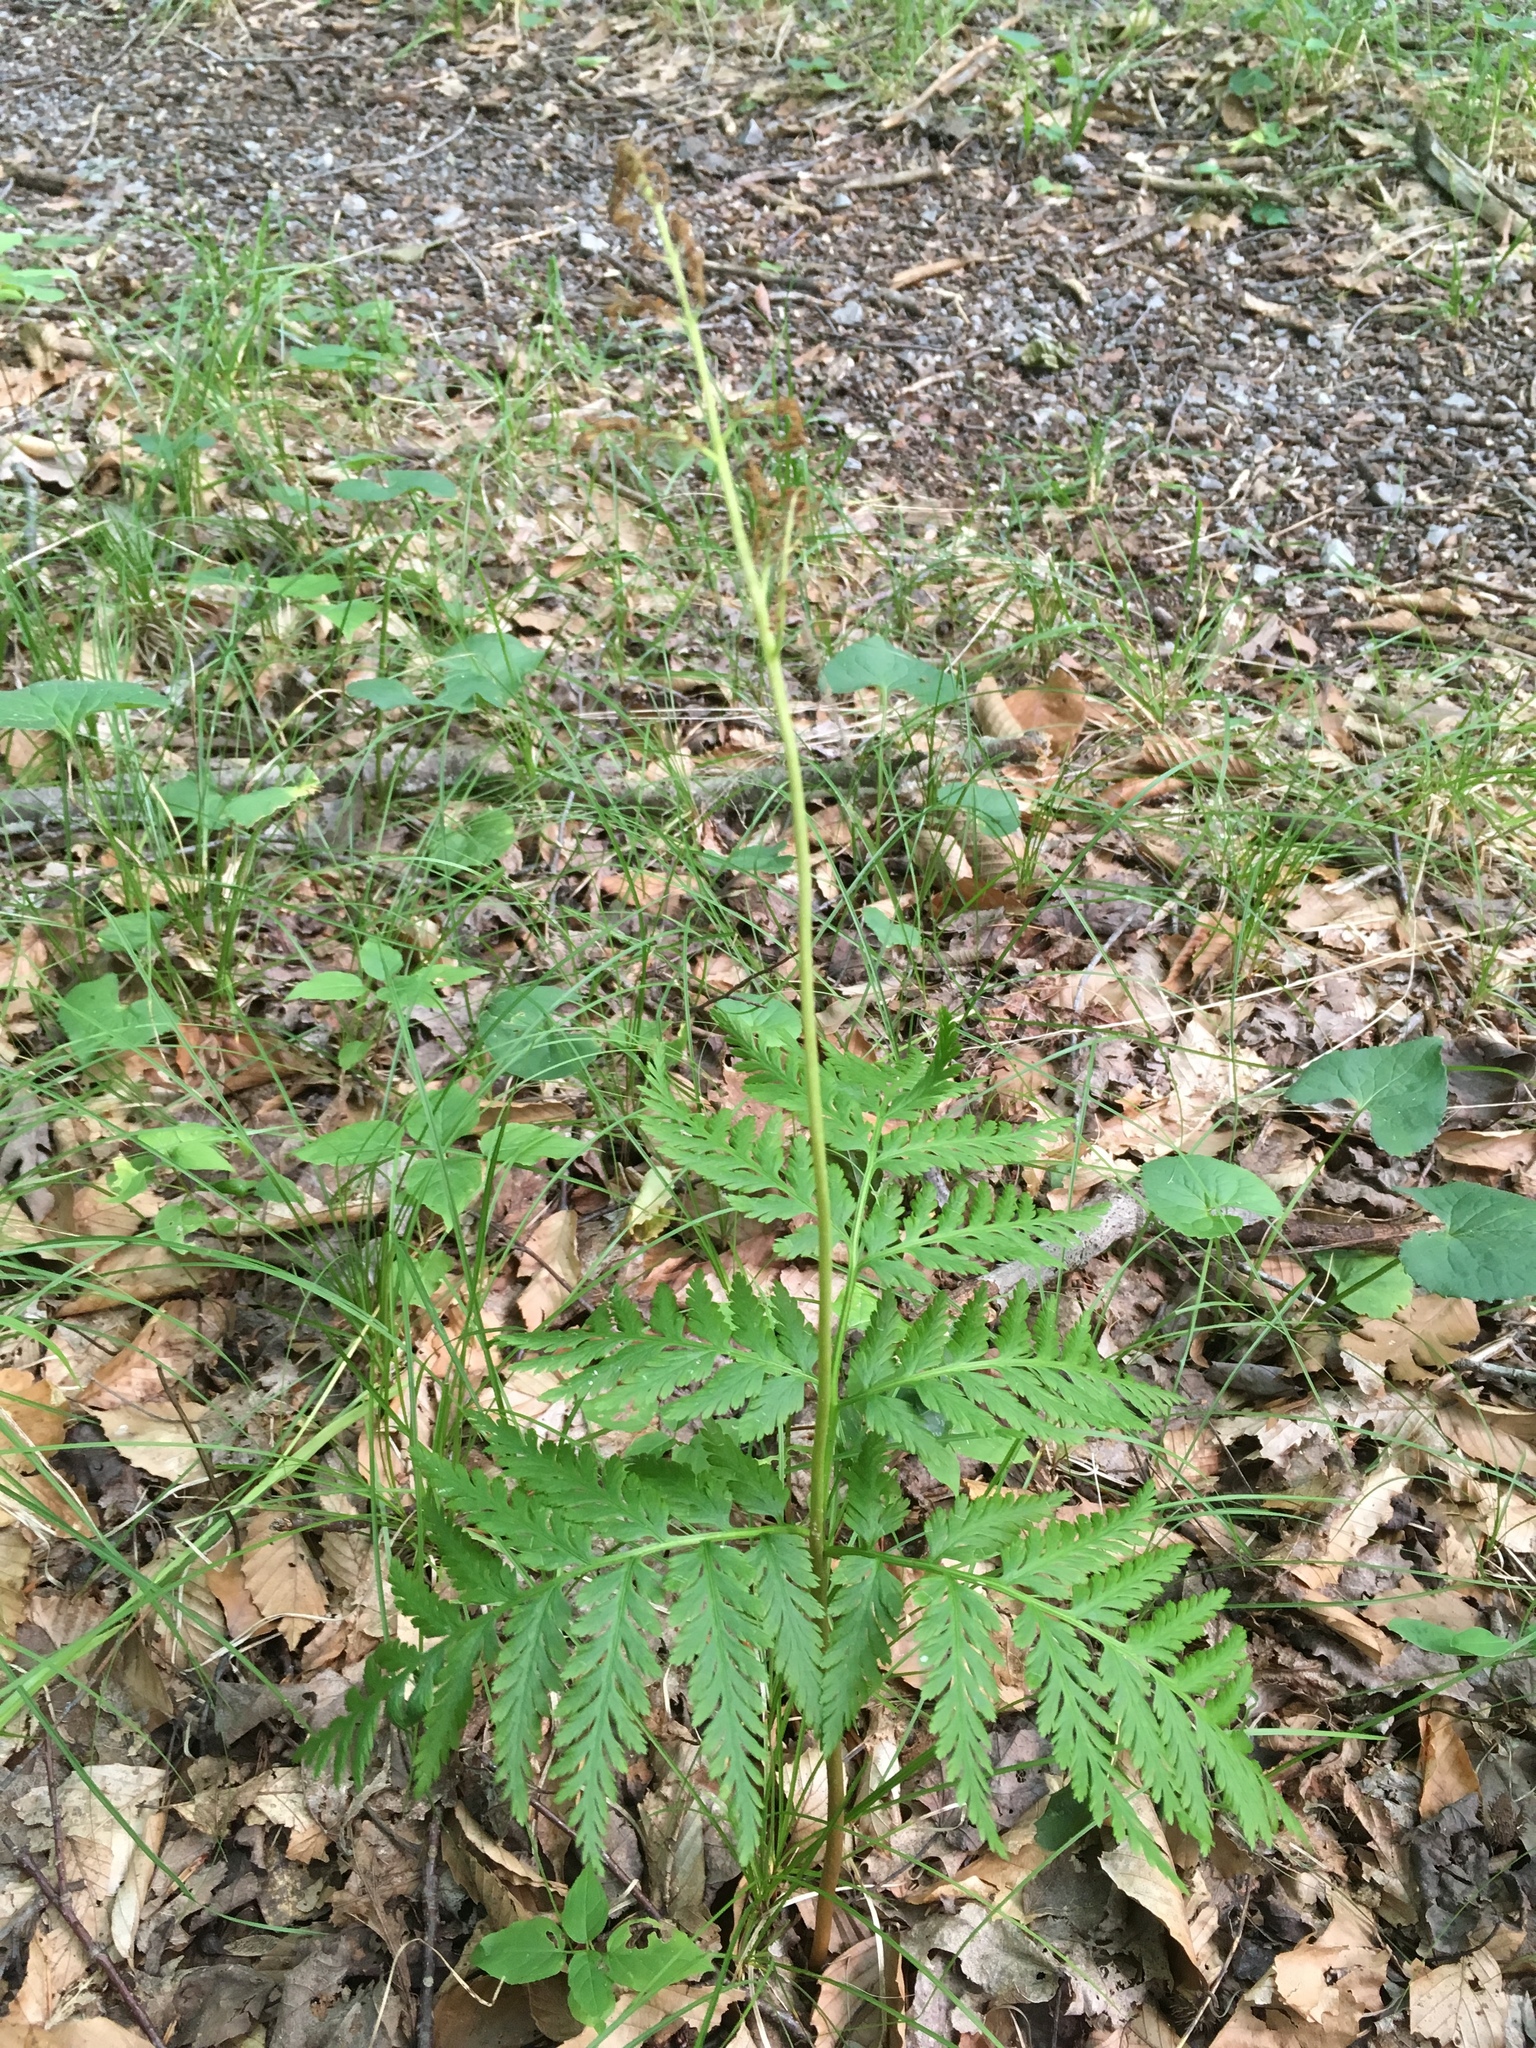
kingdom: Plantae
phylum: Tracheophyta
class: Polypodiopsida
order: Ophioglossales
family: Ophioglossaceae
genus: Botrypus
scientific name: Botrypus virginianus
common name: Common grapefern
